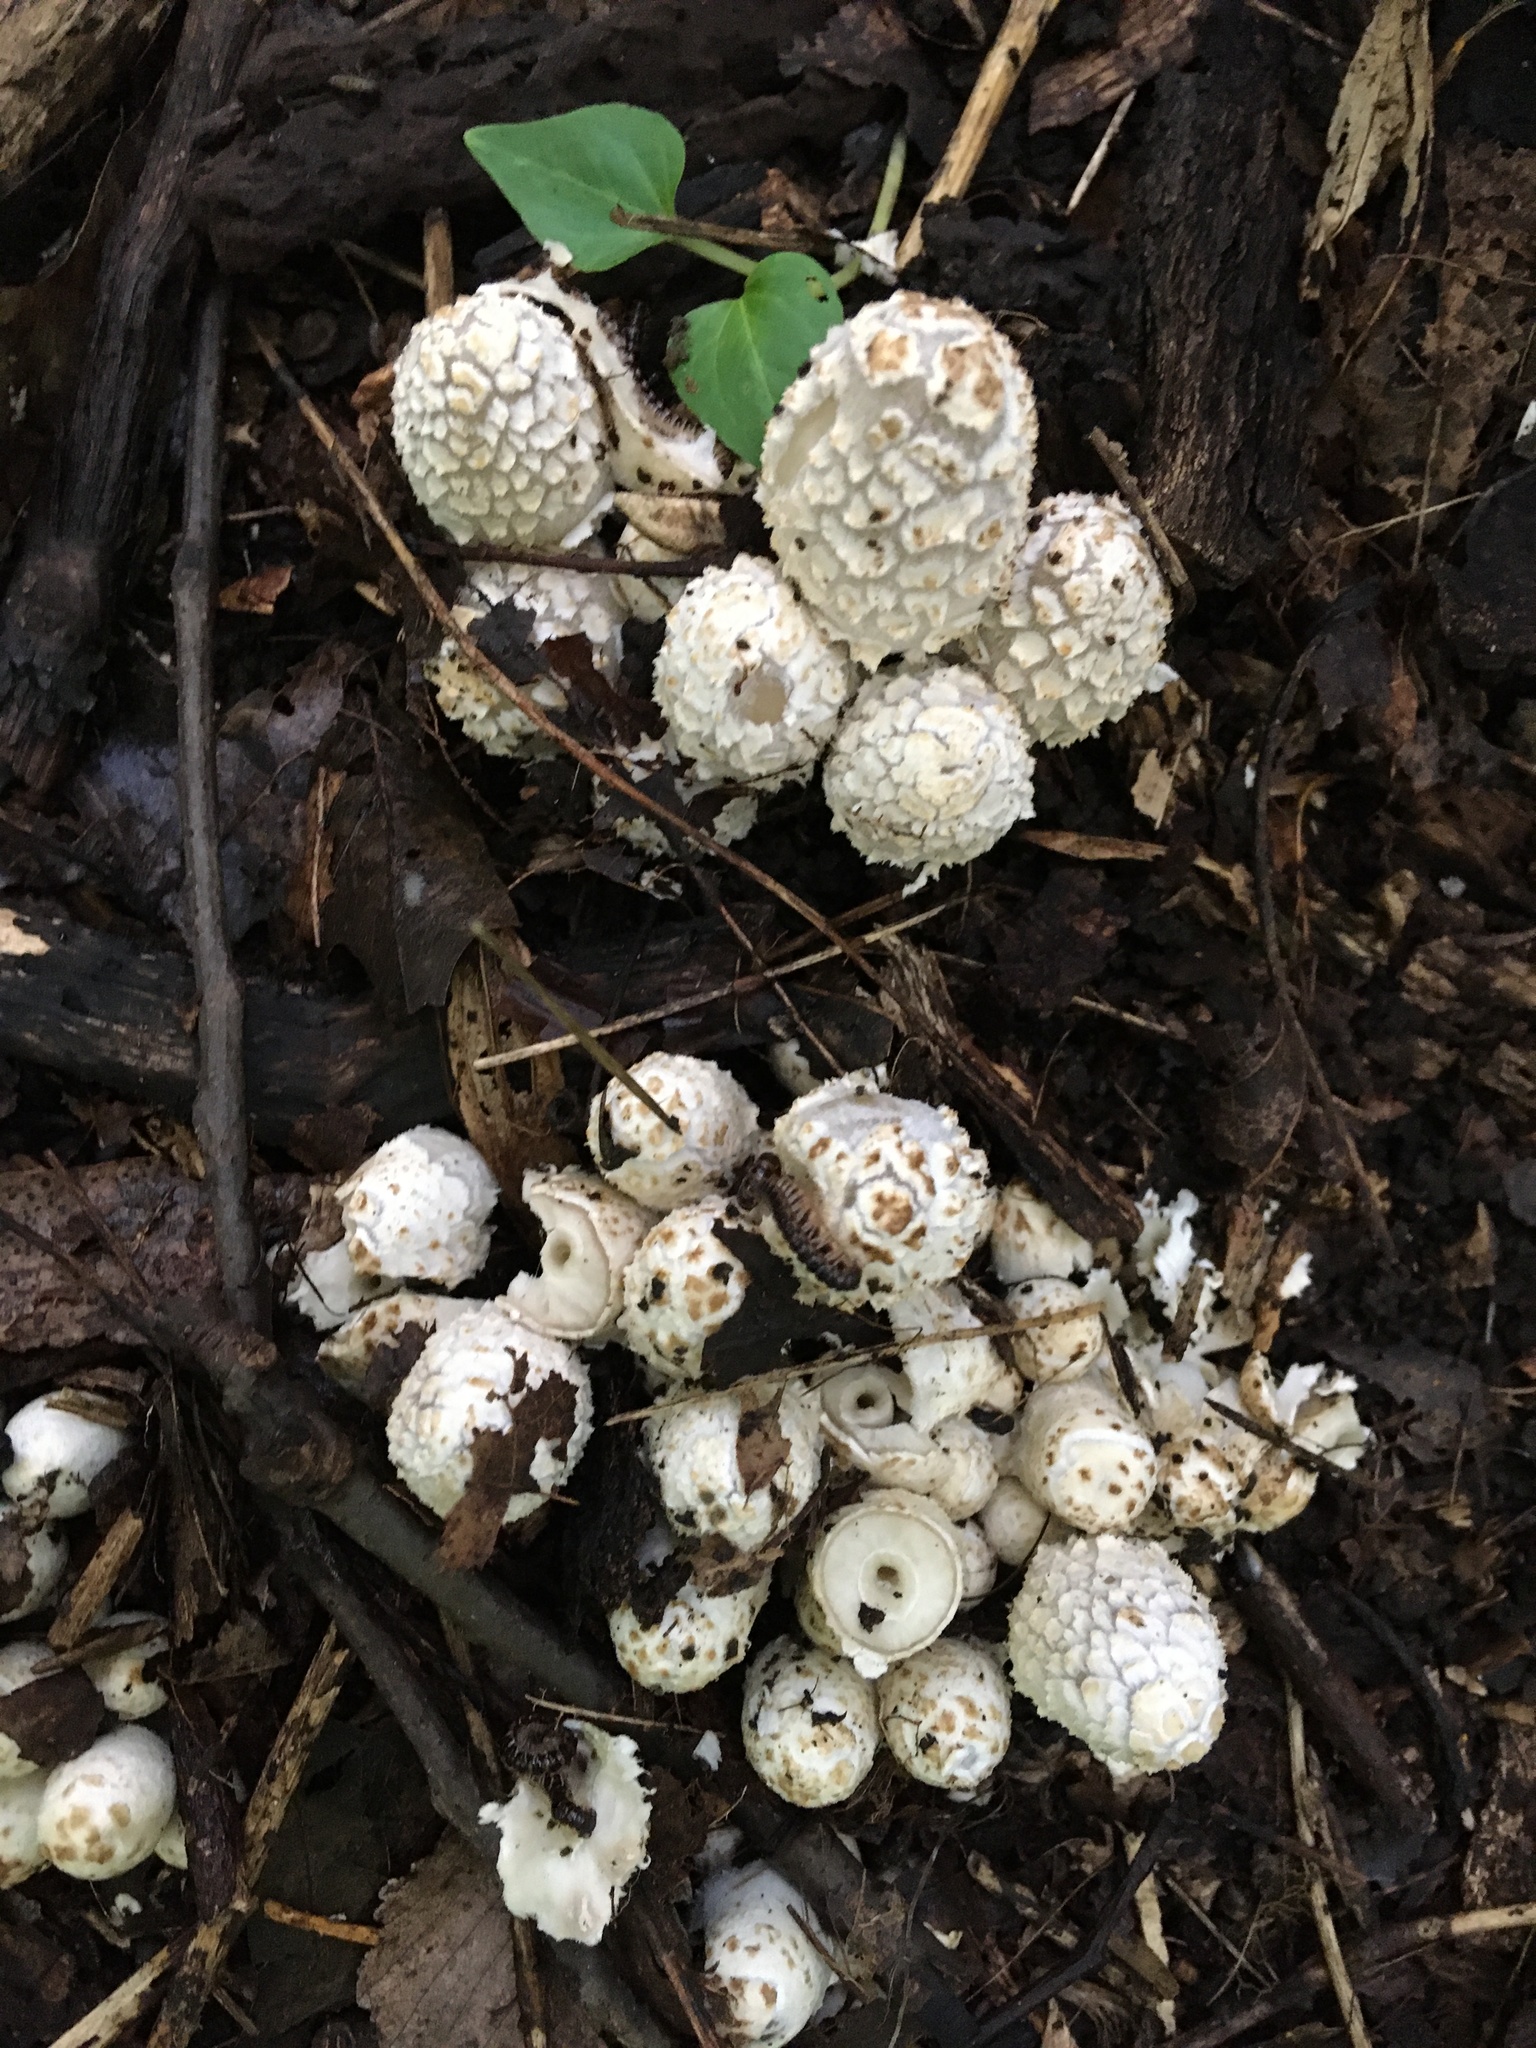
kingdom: Fungi
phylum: Basidiomycota
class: Agaricomycetes
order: Agaricales
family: Psathyrellaceae
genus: Coprinopsis
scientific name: Coprinopsis variegata
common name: Scaly ink cap
